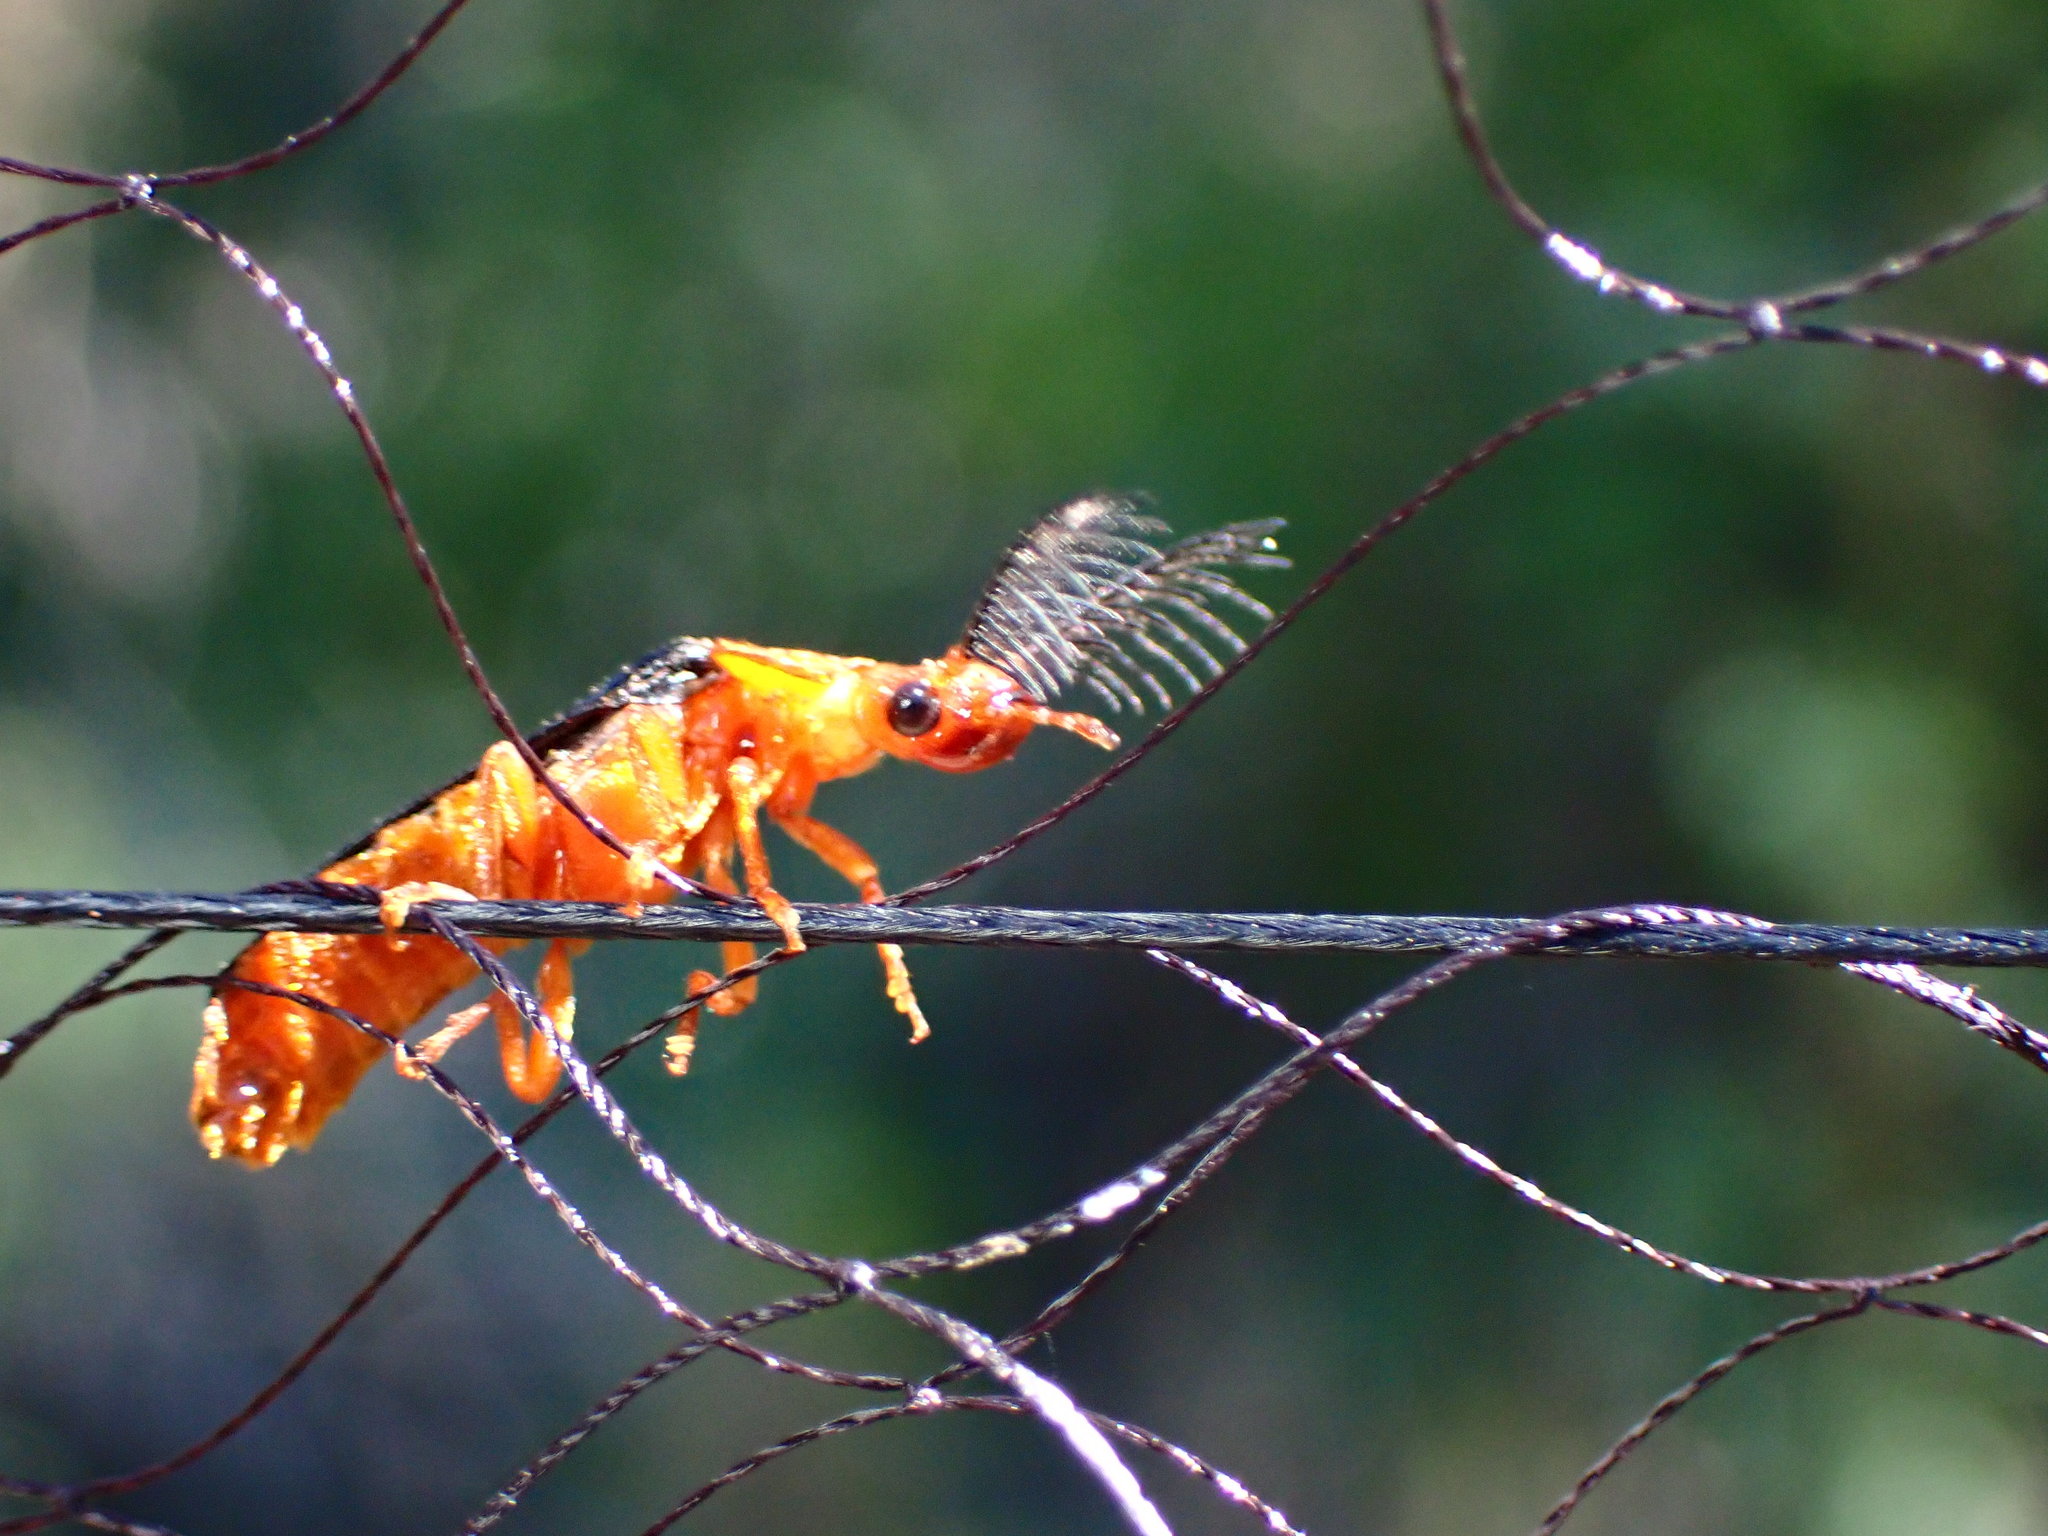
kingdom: Animalia
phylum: Arthropoda
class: Insecta
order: Coleoptera
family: Phengodidae
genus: Zarhipis
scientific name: Zarhipis integripennis
